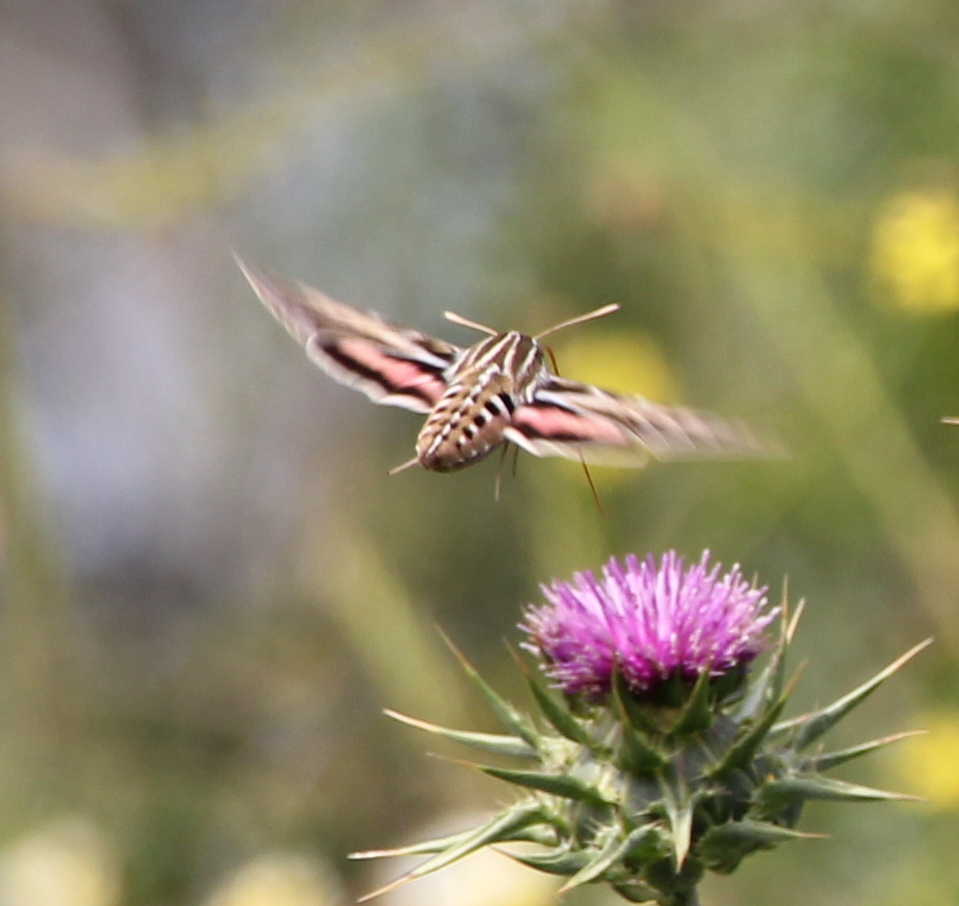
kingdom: Animalia
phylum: Arthropoda
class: Insecta
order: Lepidoptera
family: Sphingidae
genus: Hyles
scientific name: Hyles lineata
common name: White-lined sphinx
